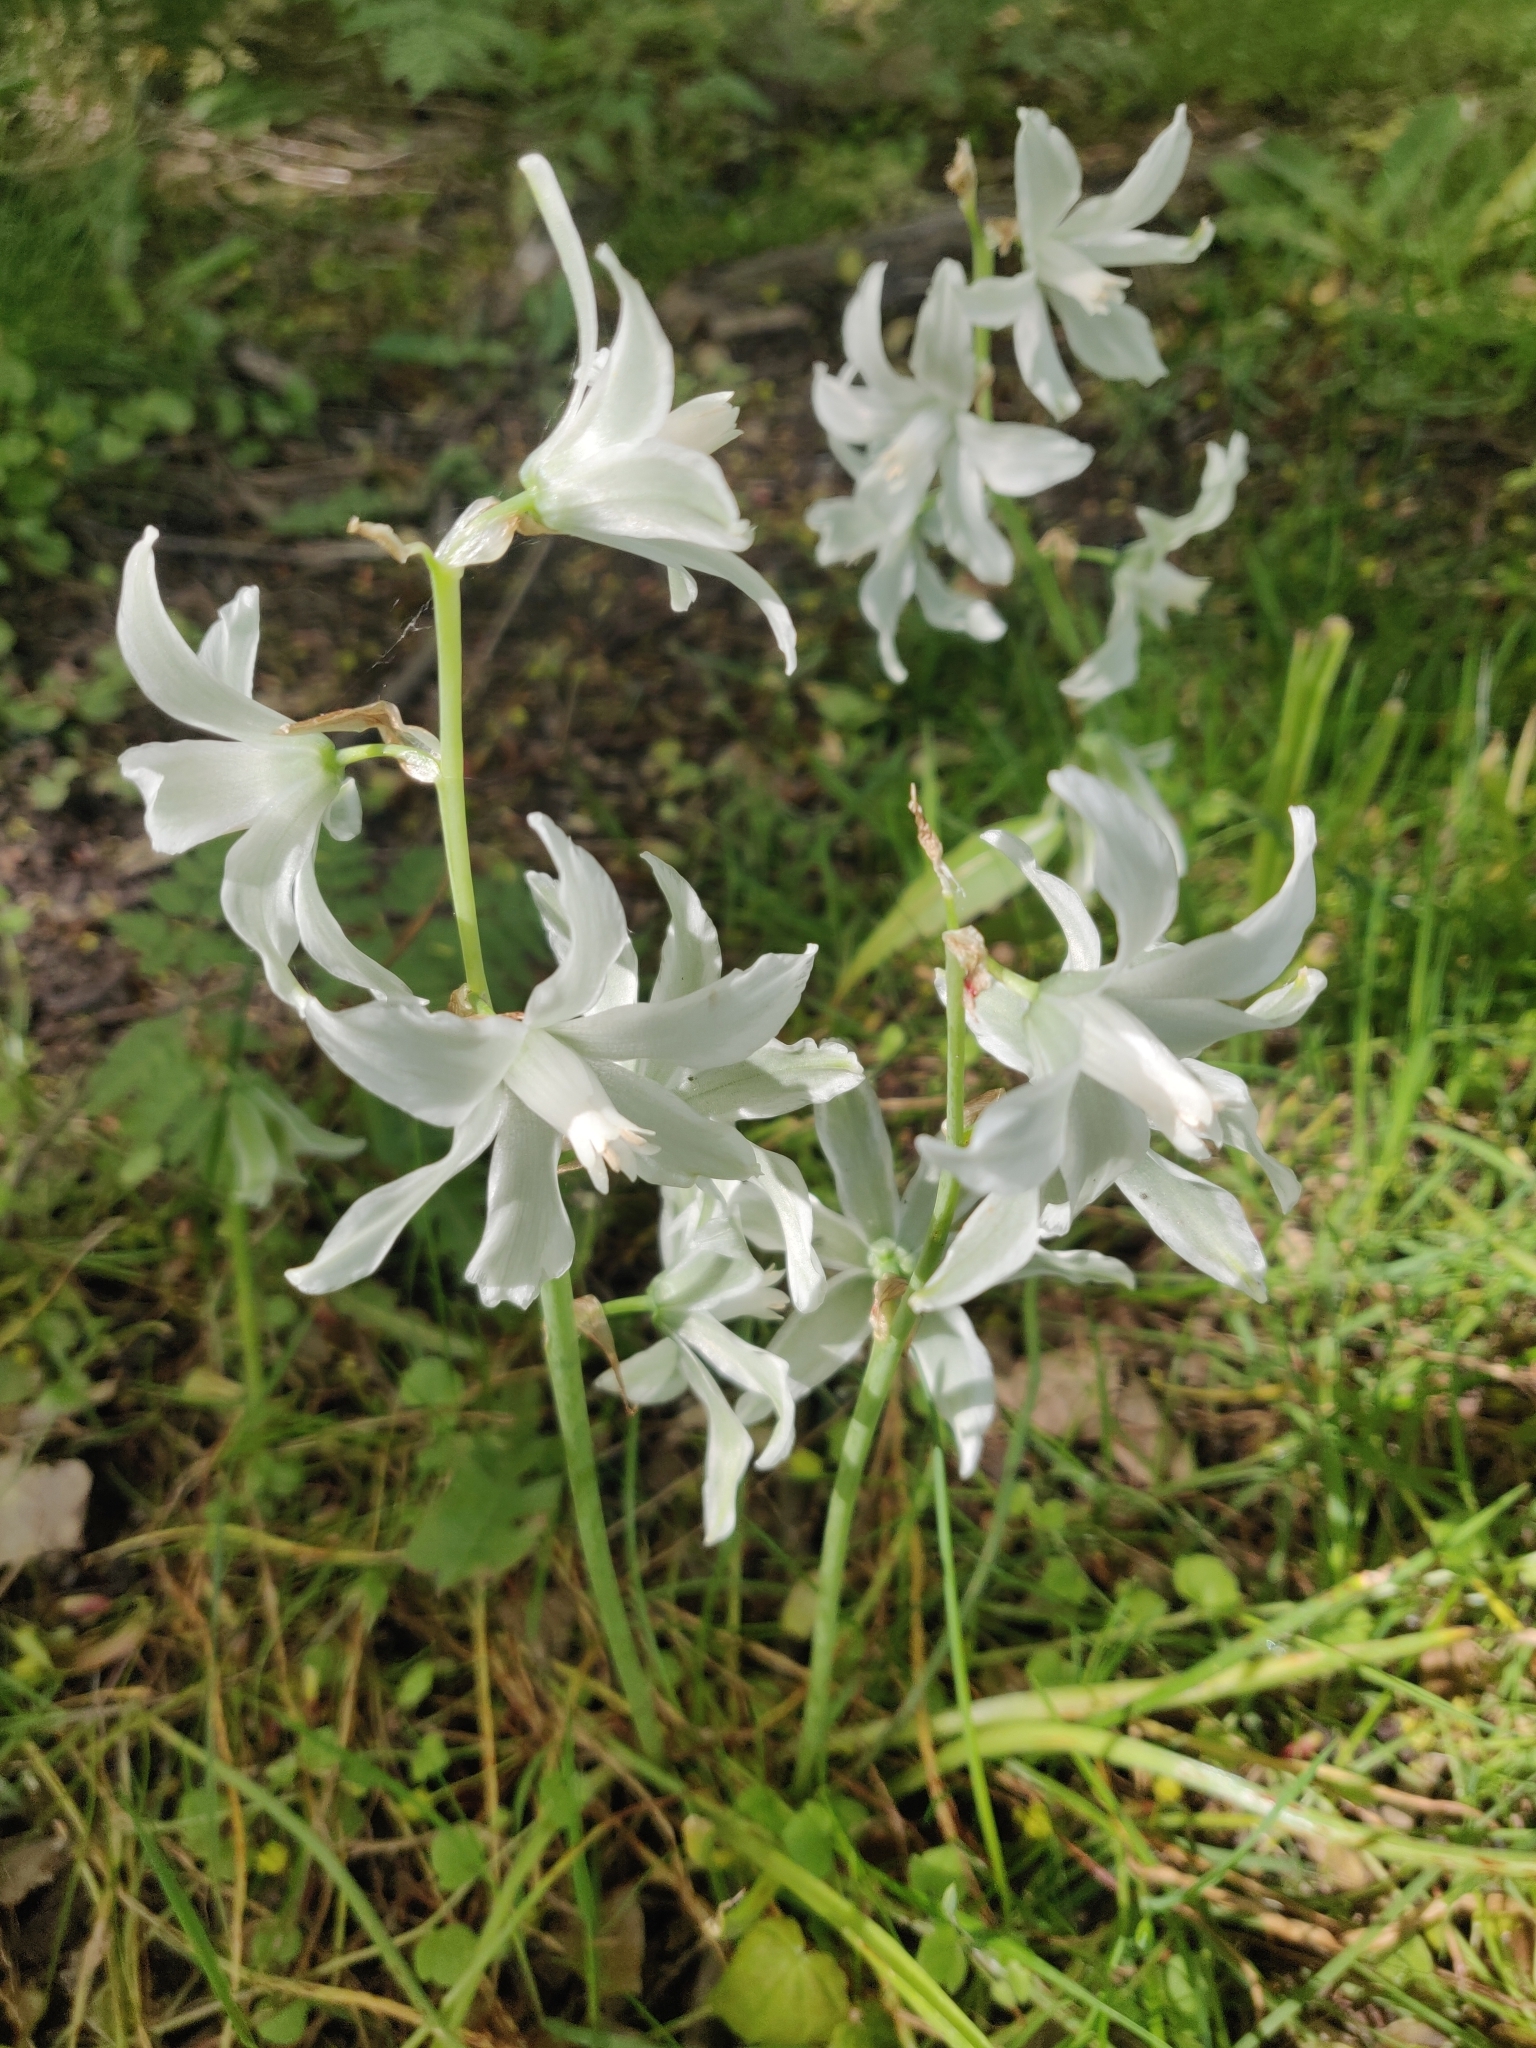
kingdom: Plantae
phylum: Tracheophyta
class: Liliopsida
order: Asparagales
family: Asparagaceae
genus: Ornithogalum
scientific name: Ornithogalum nutans
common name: Drooping star-of-bethlehem
